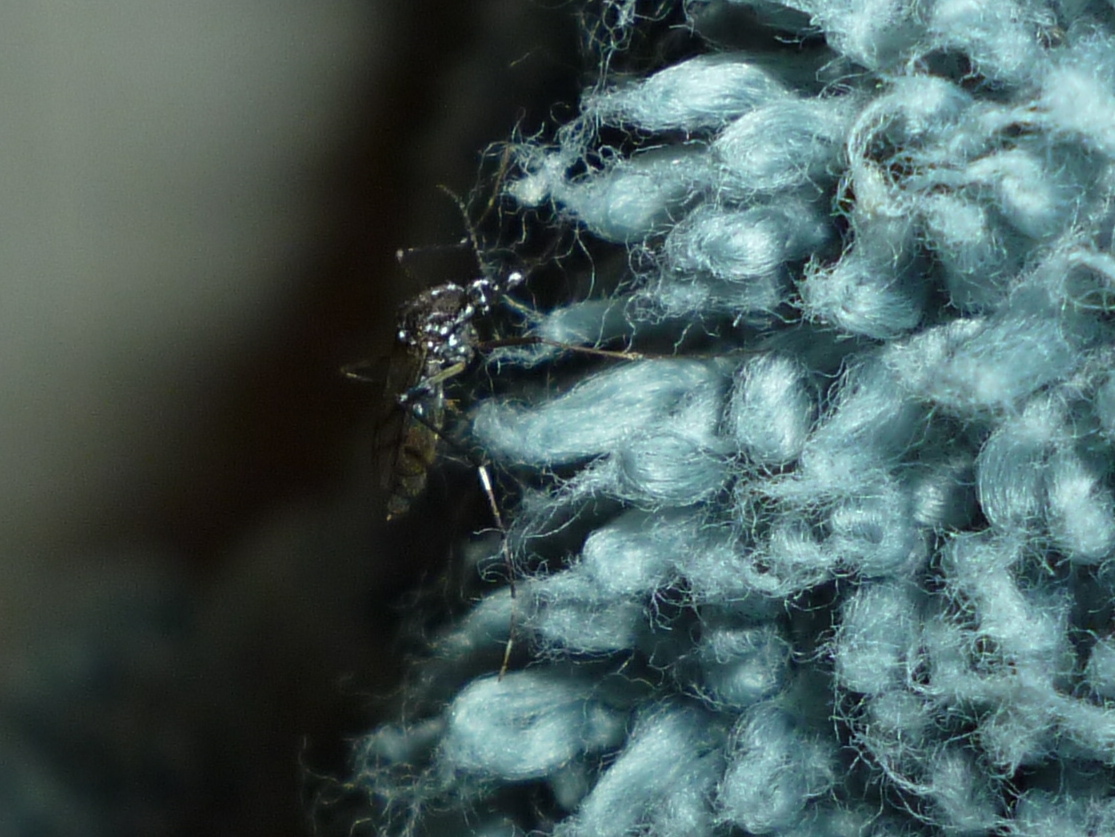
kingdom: Animalia
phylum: Arthropoda
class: Insecta
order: Diptera
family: Culicidae
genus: Aedes
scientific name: Aedes albopictus
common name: Tiger mosquito
